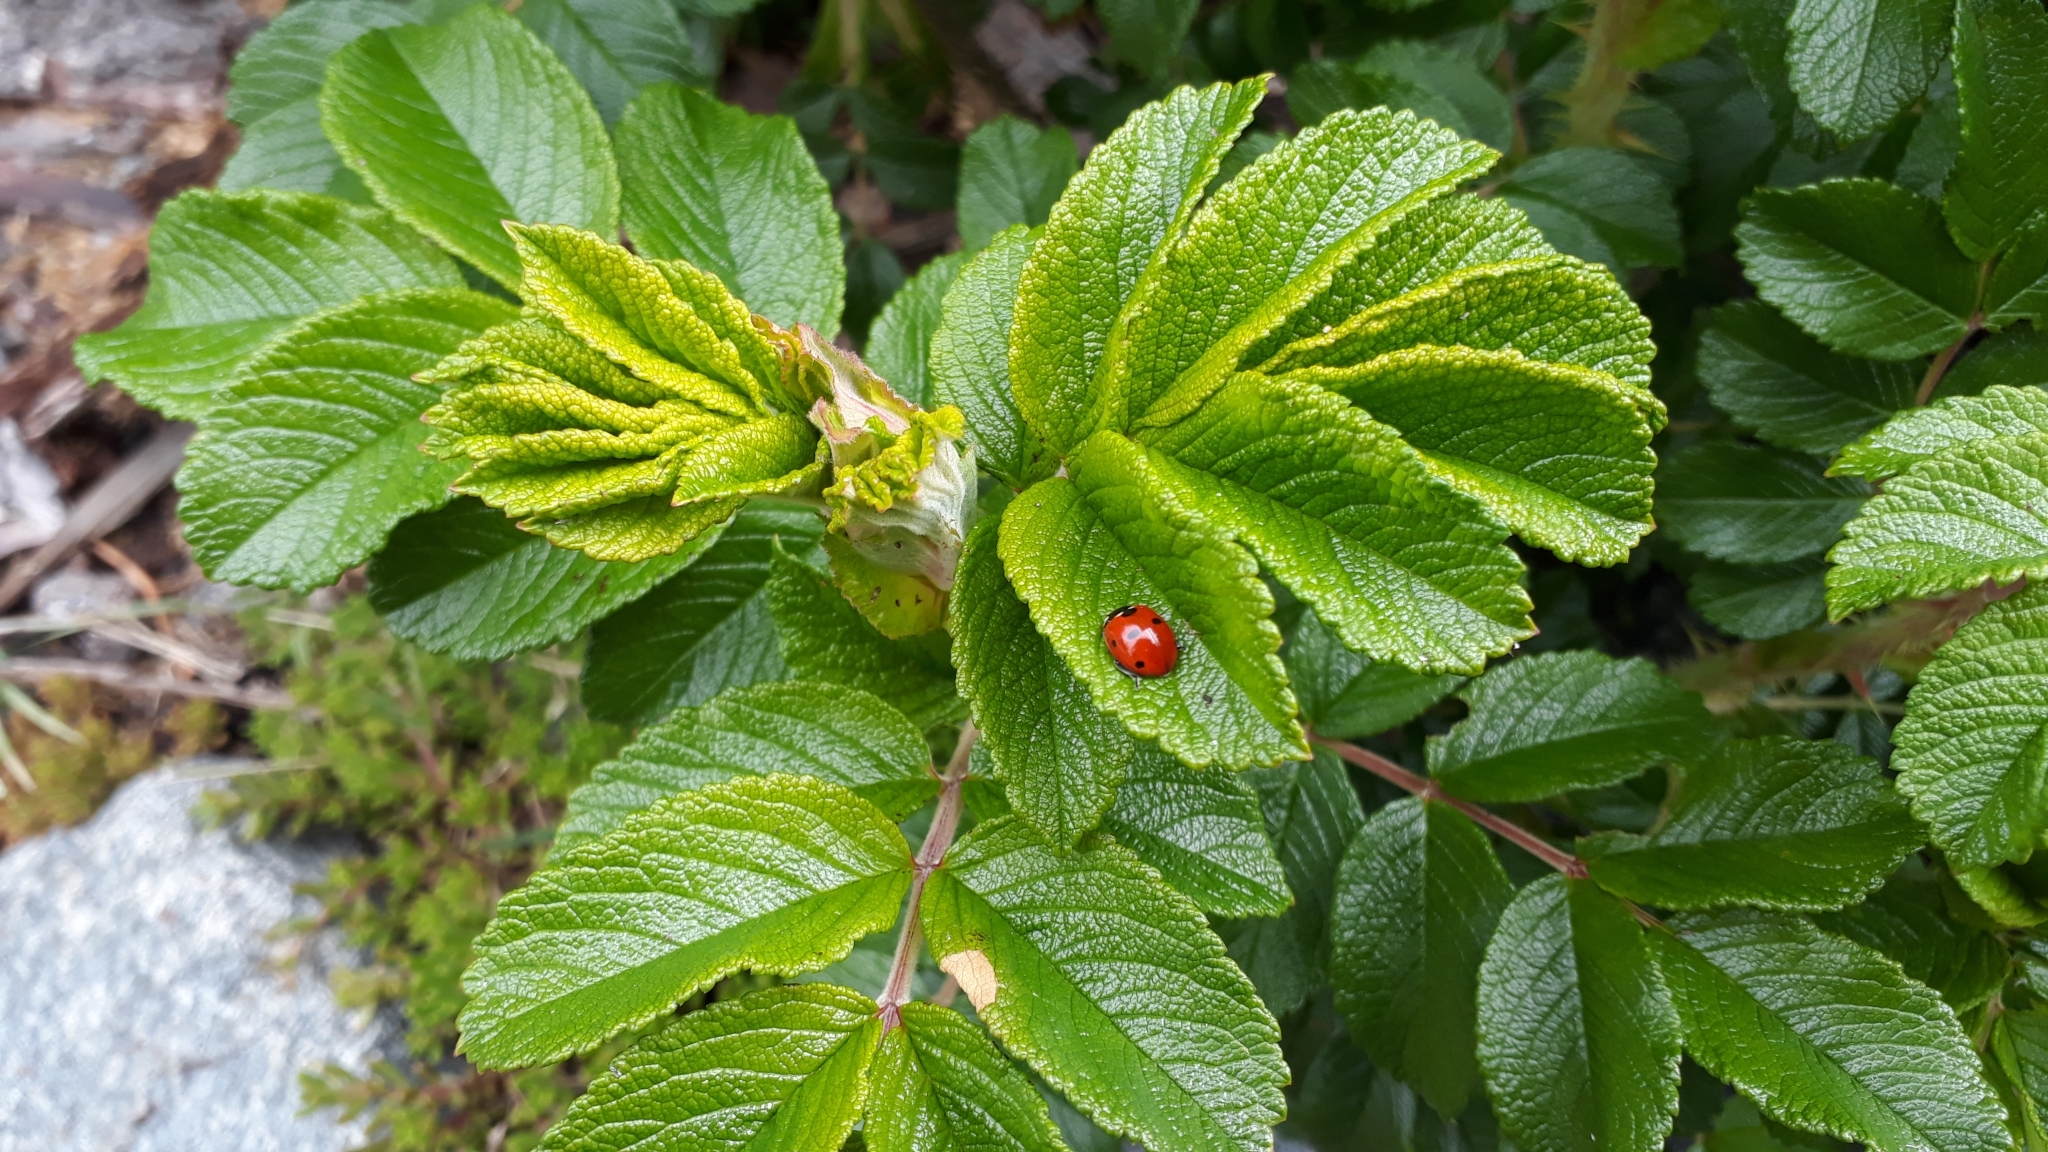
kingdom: Animalia
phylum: Arthropoda
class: Insecta
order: Coleoptera
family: Coccinellidae
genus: Coccinella
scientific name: Coccinella septempunctata
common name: Sevenspotted lady beetle
